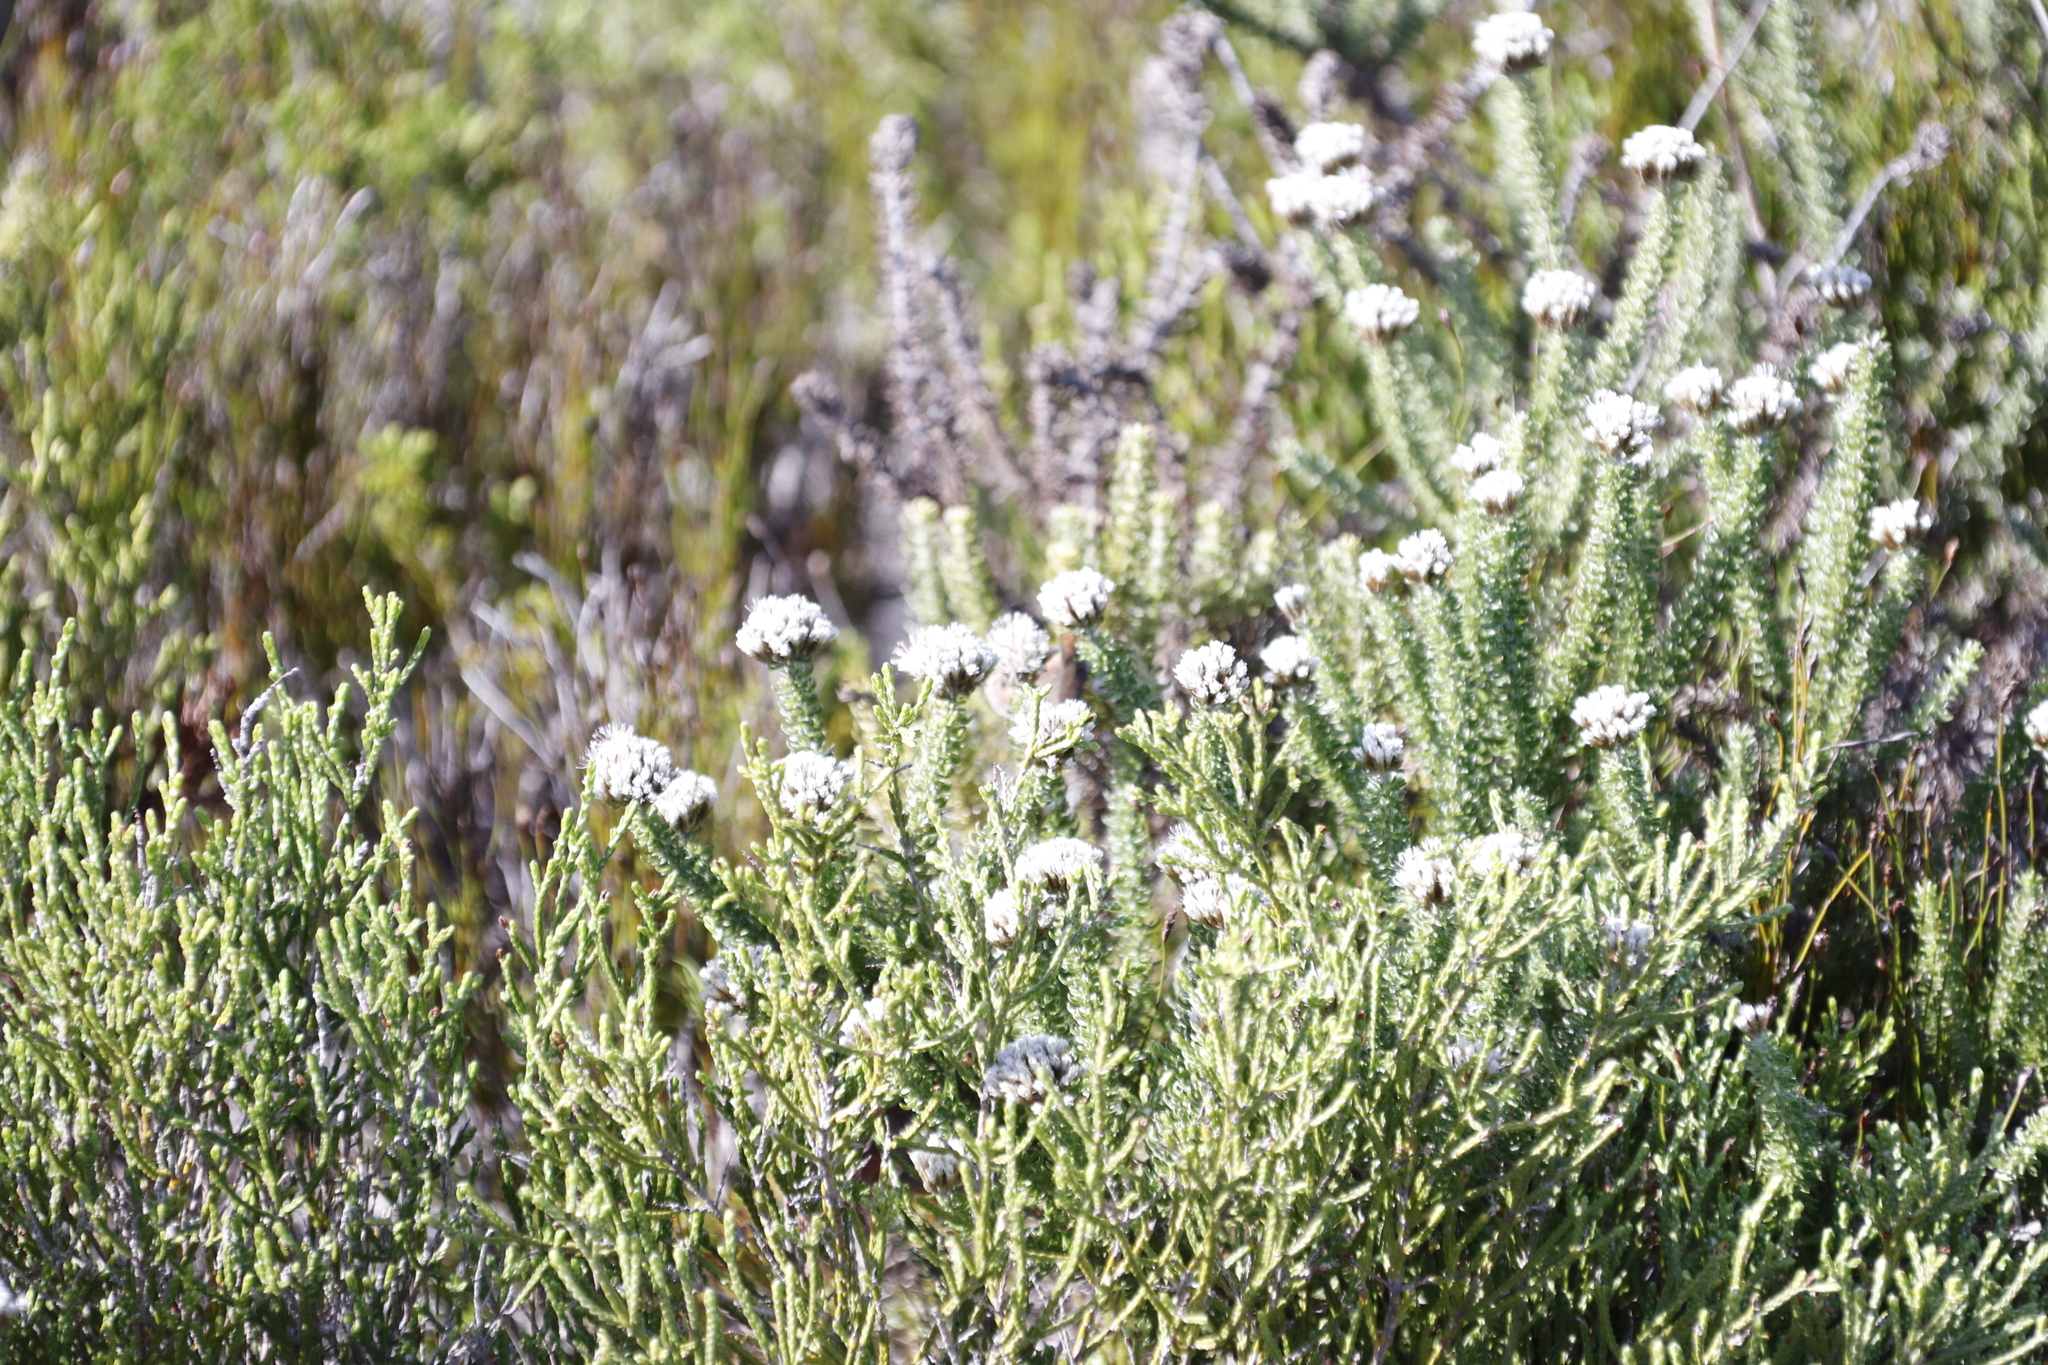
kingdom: Plantae
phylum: Tracheophyta
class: Magnoliopsida
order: Asterales
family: Asteraceae
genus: Metalasia
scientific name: Metalasia muricata
